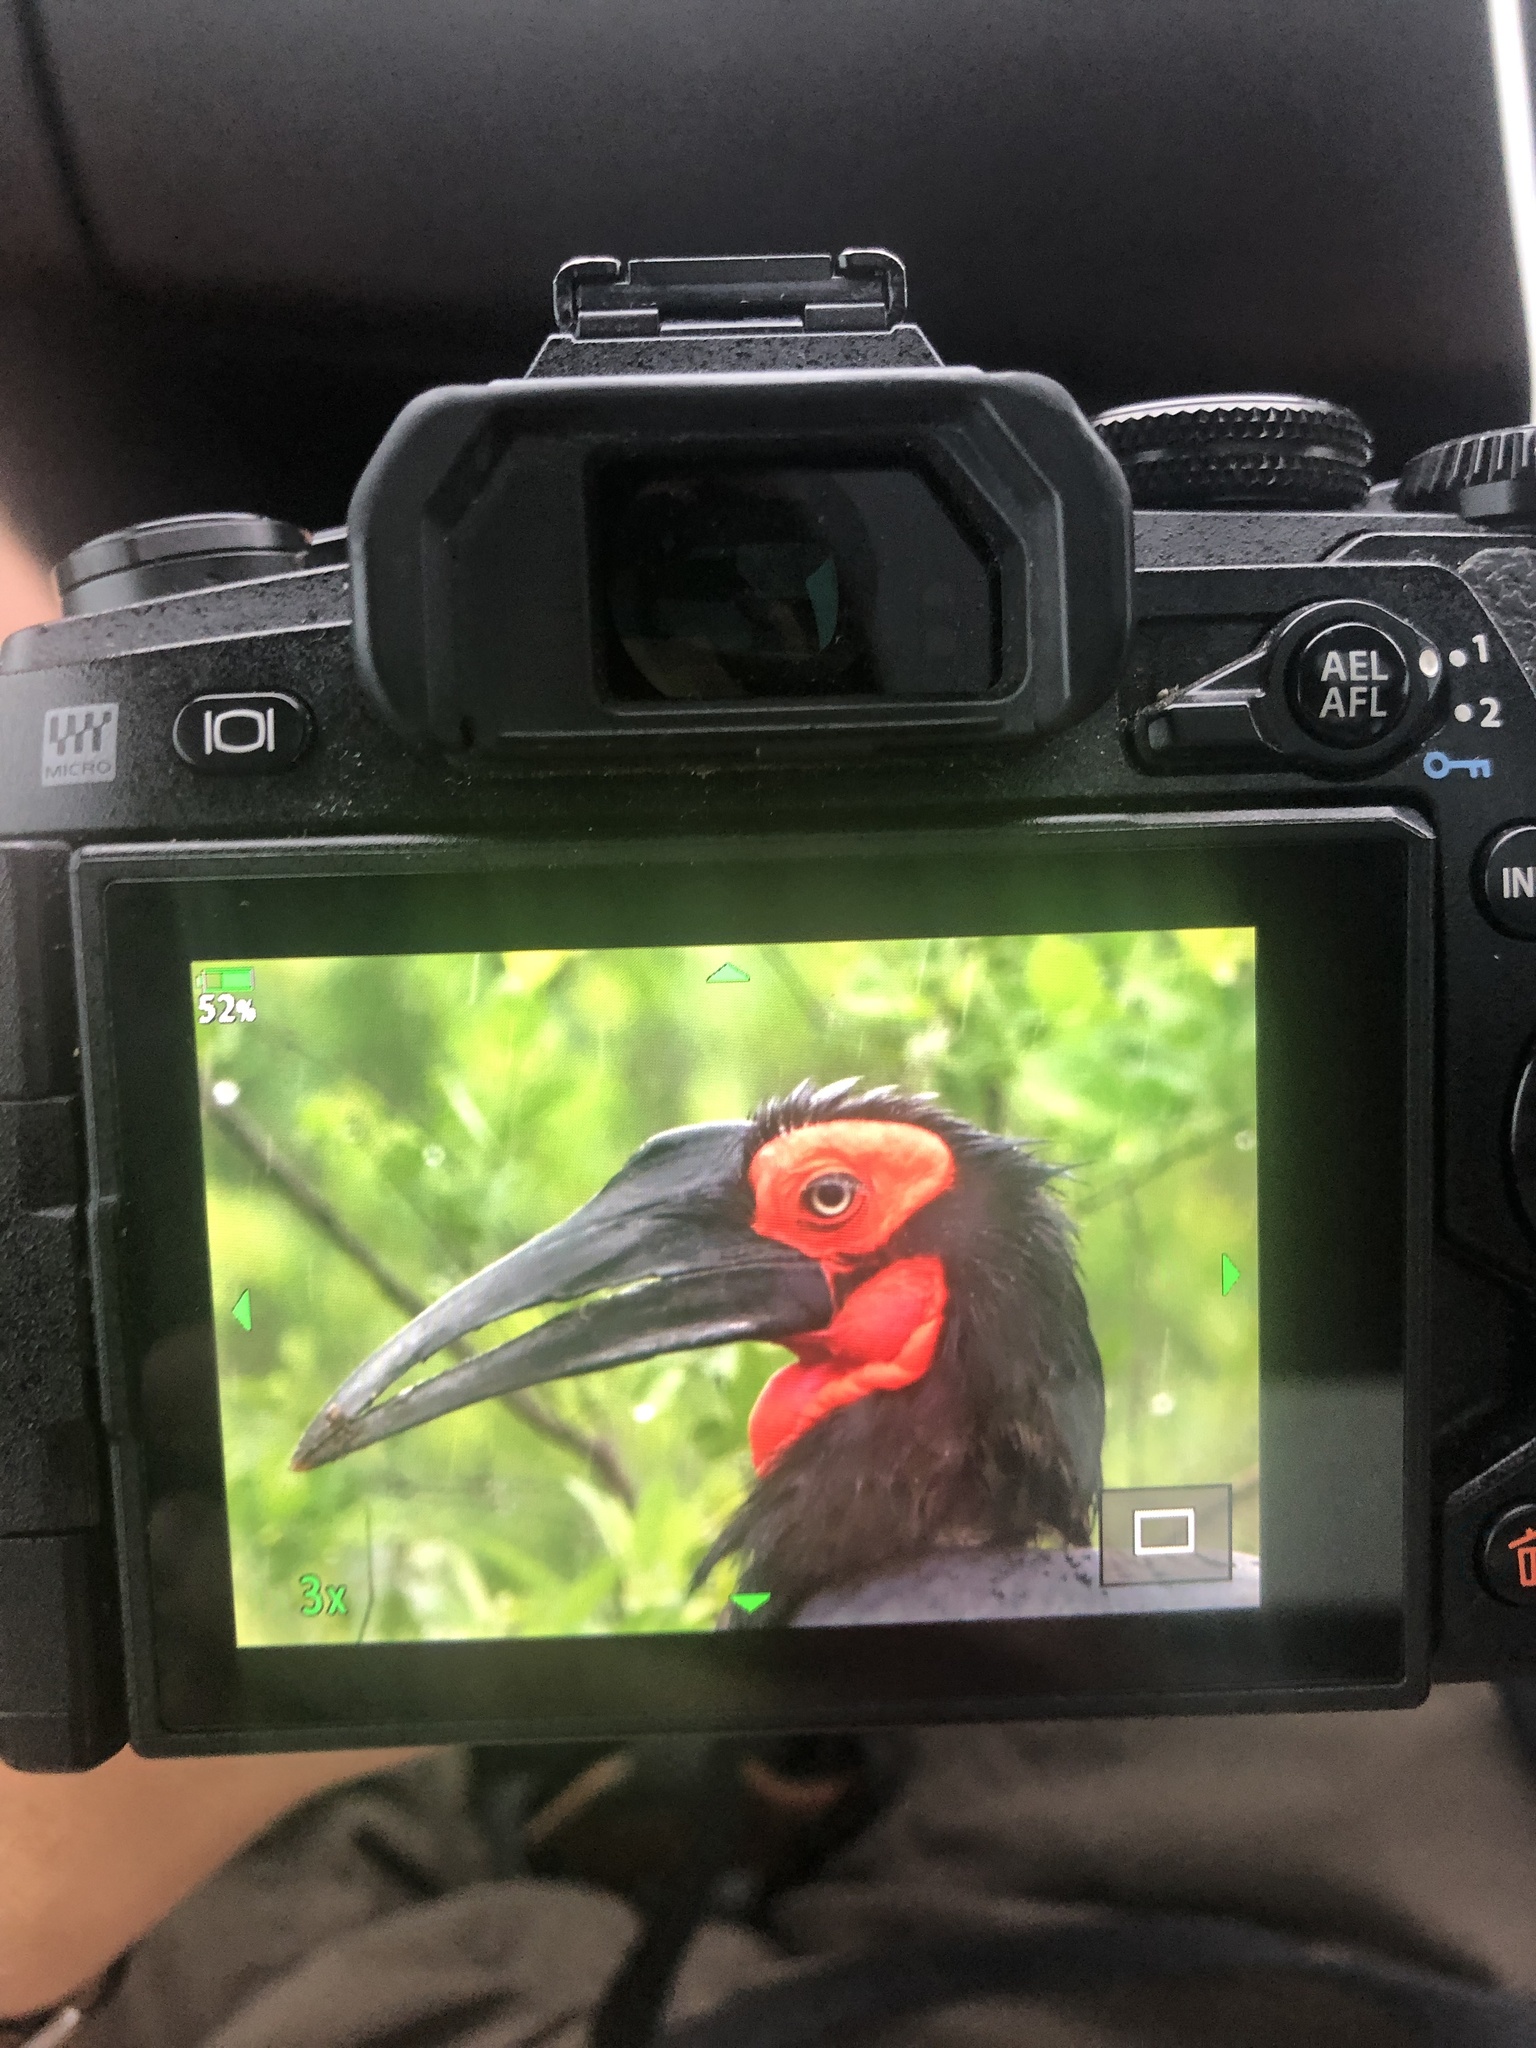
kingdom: Animalia
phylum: Chordata
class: Aves
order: Bucerotiformes
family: Bucorvidae
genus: Bucorvus
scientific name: Bucorvus leadbeateri
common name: Southern ground-hornbill
